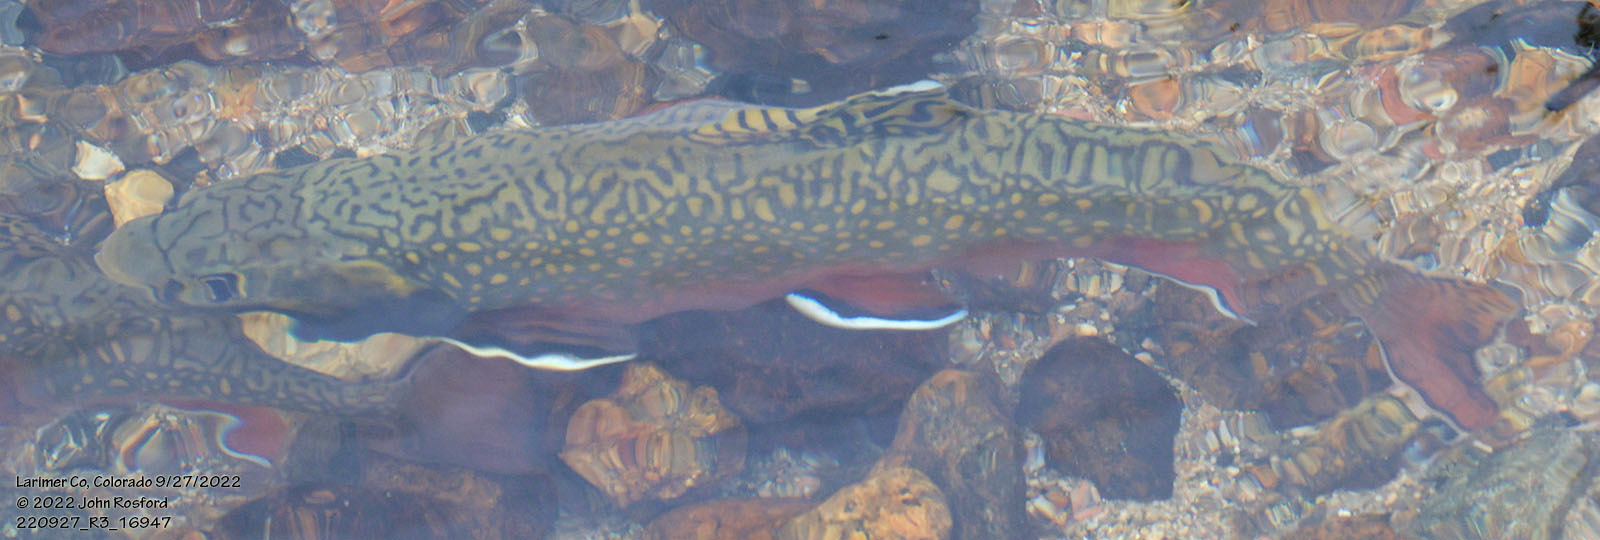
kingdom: Animalia
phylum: Chordata
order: Salmoniformes
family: Salmonidae
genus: Salvelinus
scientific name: Salvelinus fontinalis
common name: Brook trout
